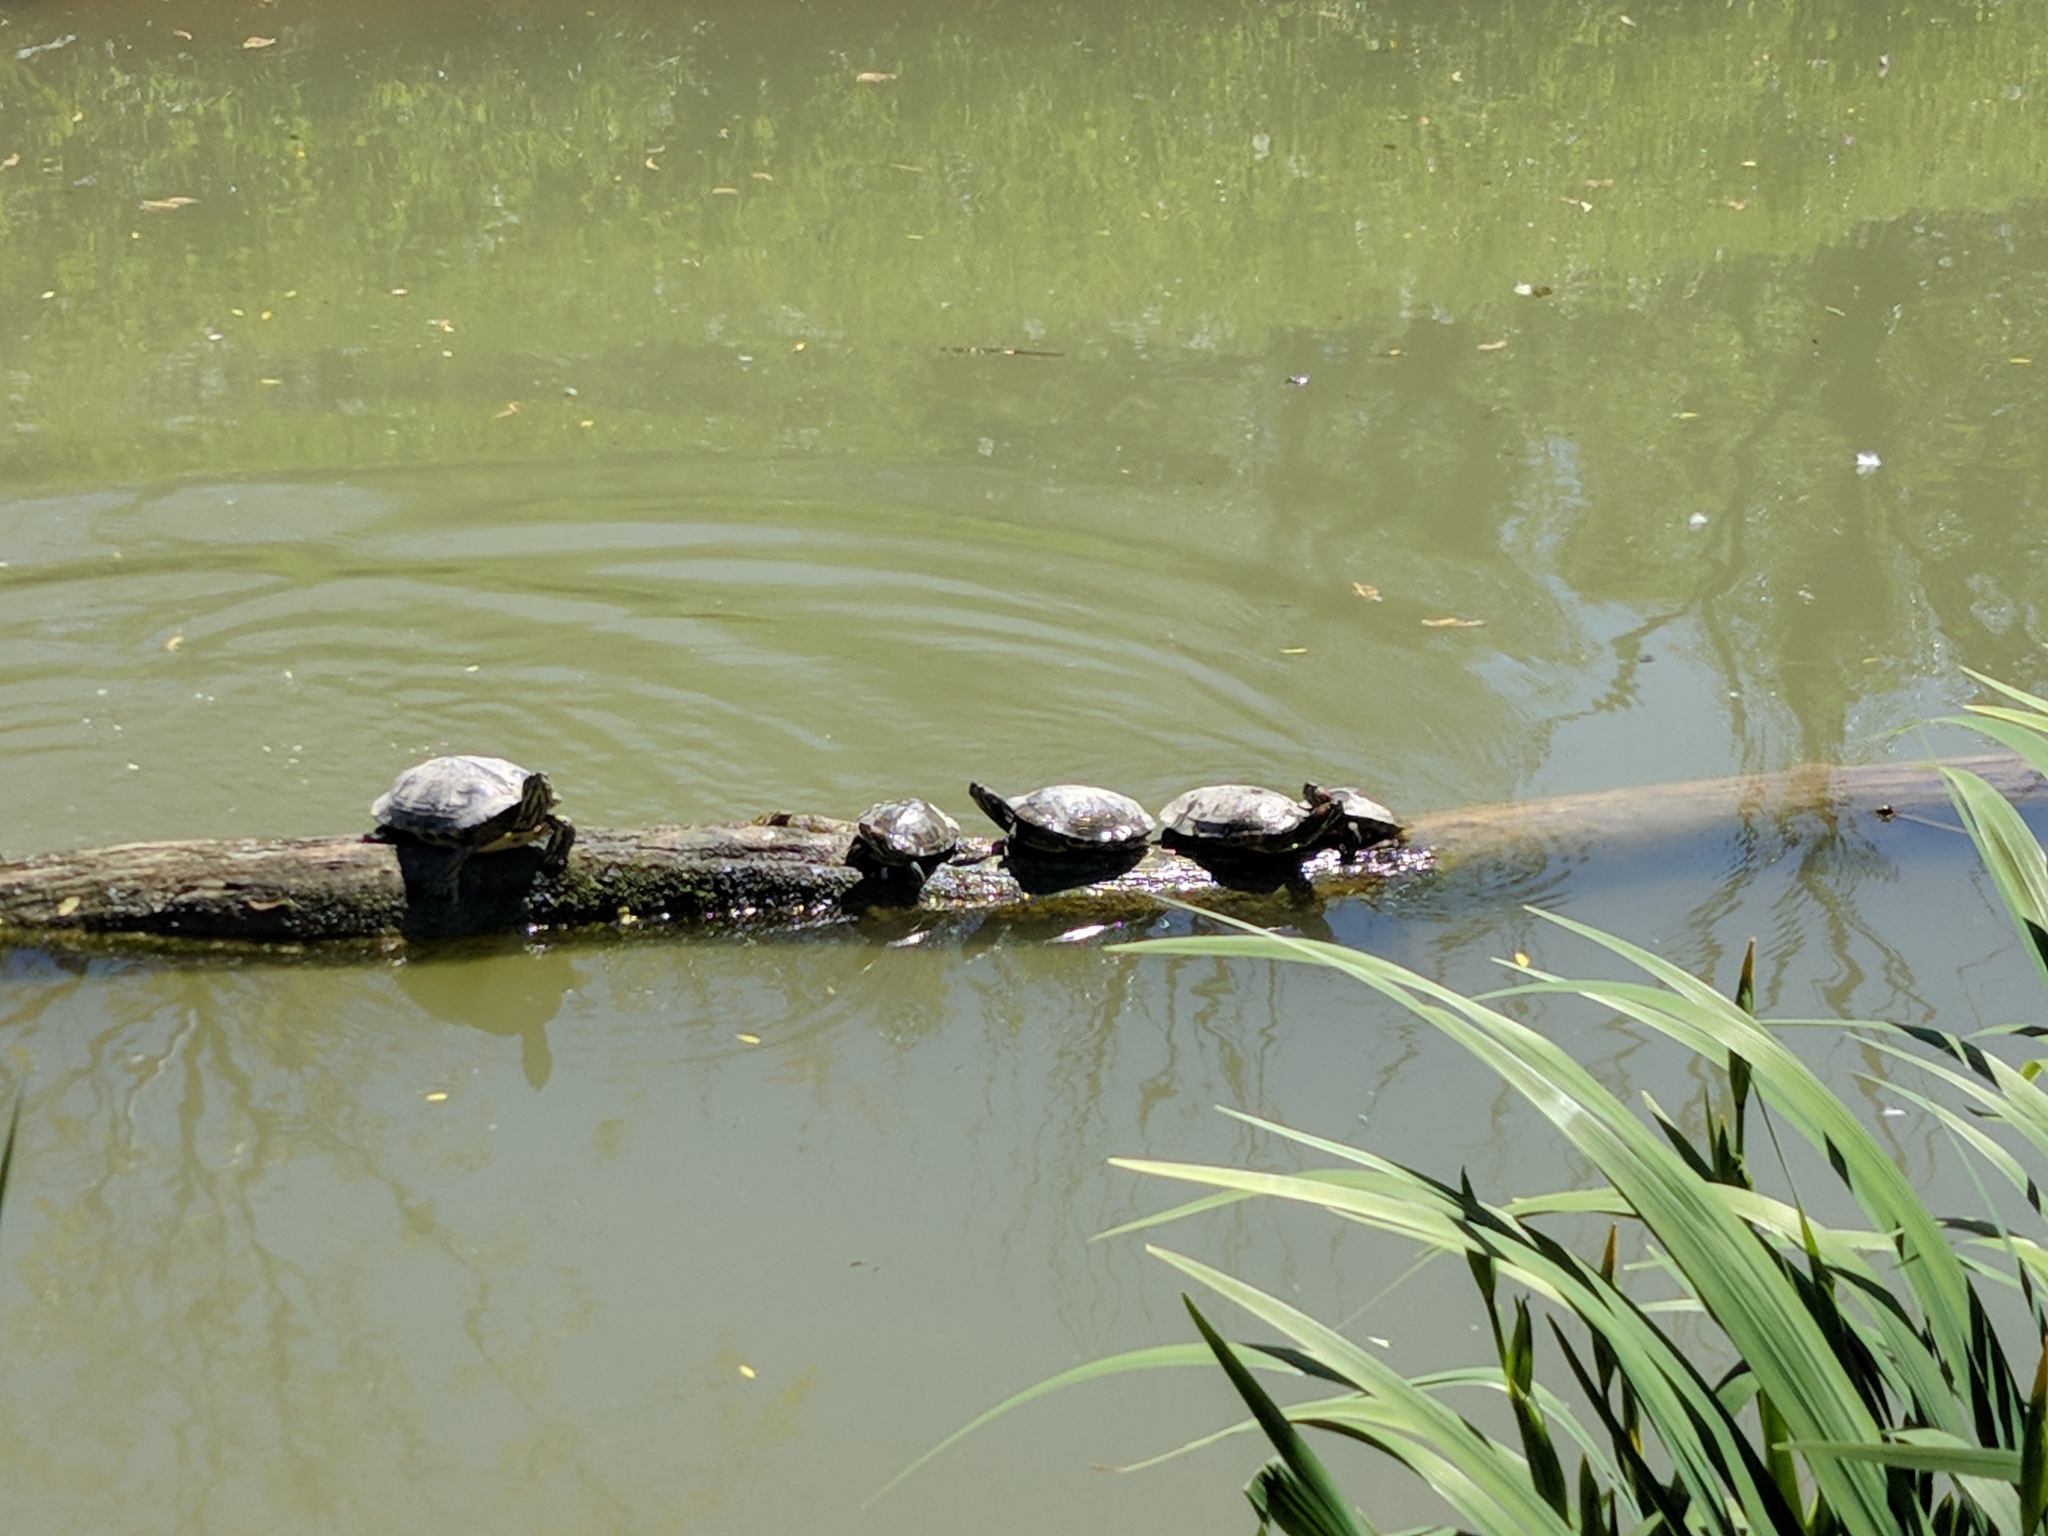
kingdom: Animalia
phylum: Chordata
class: Testudines
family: Emydidae
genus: Trachemys
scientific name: Trachemys scripta
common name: Slider
